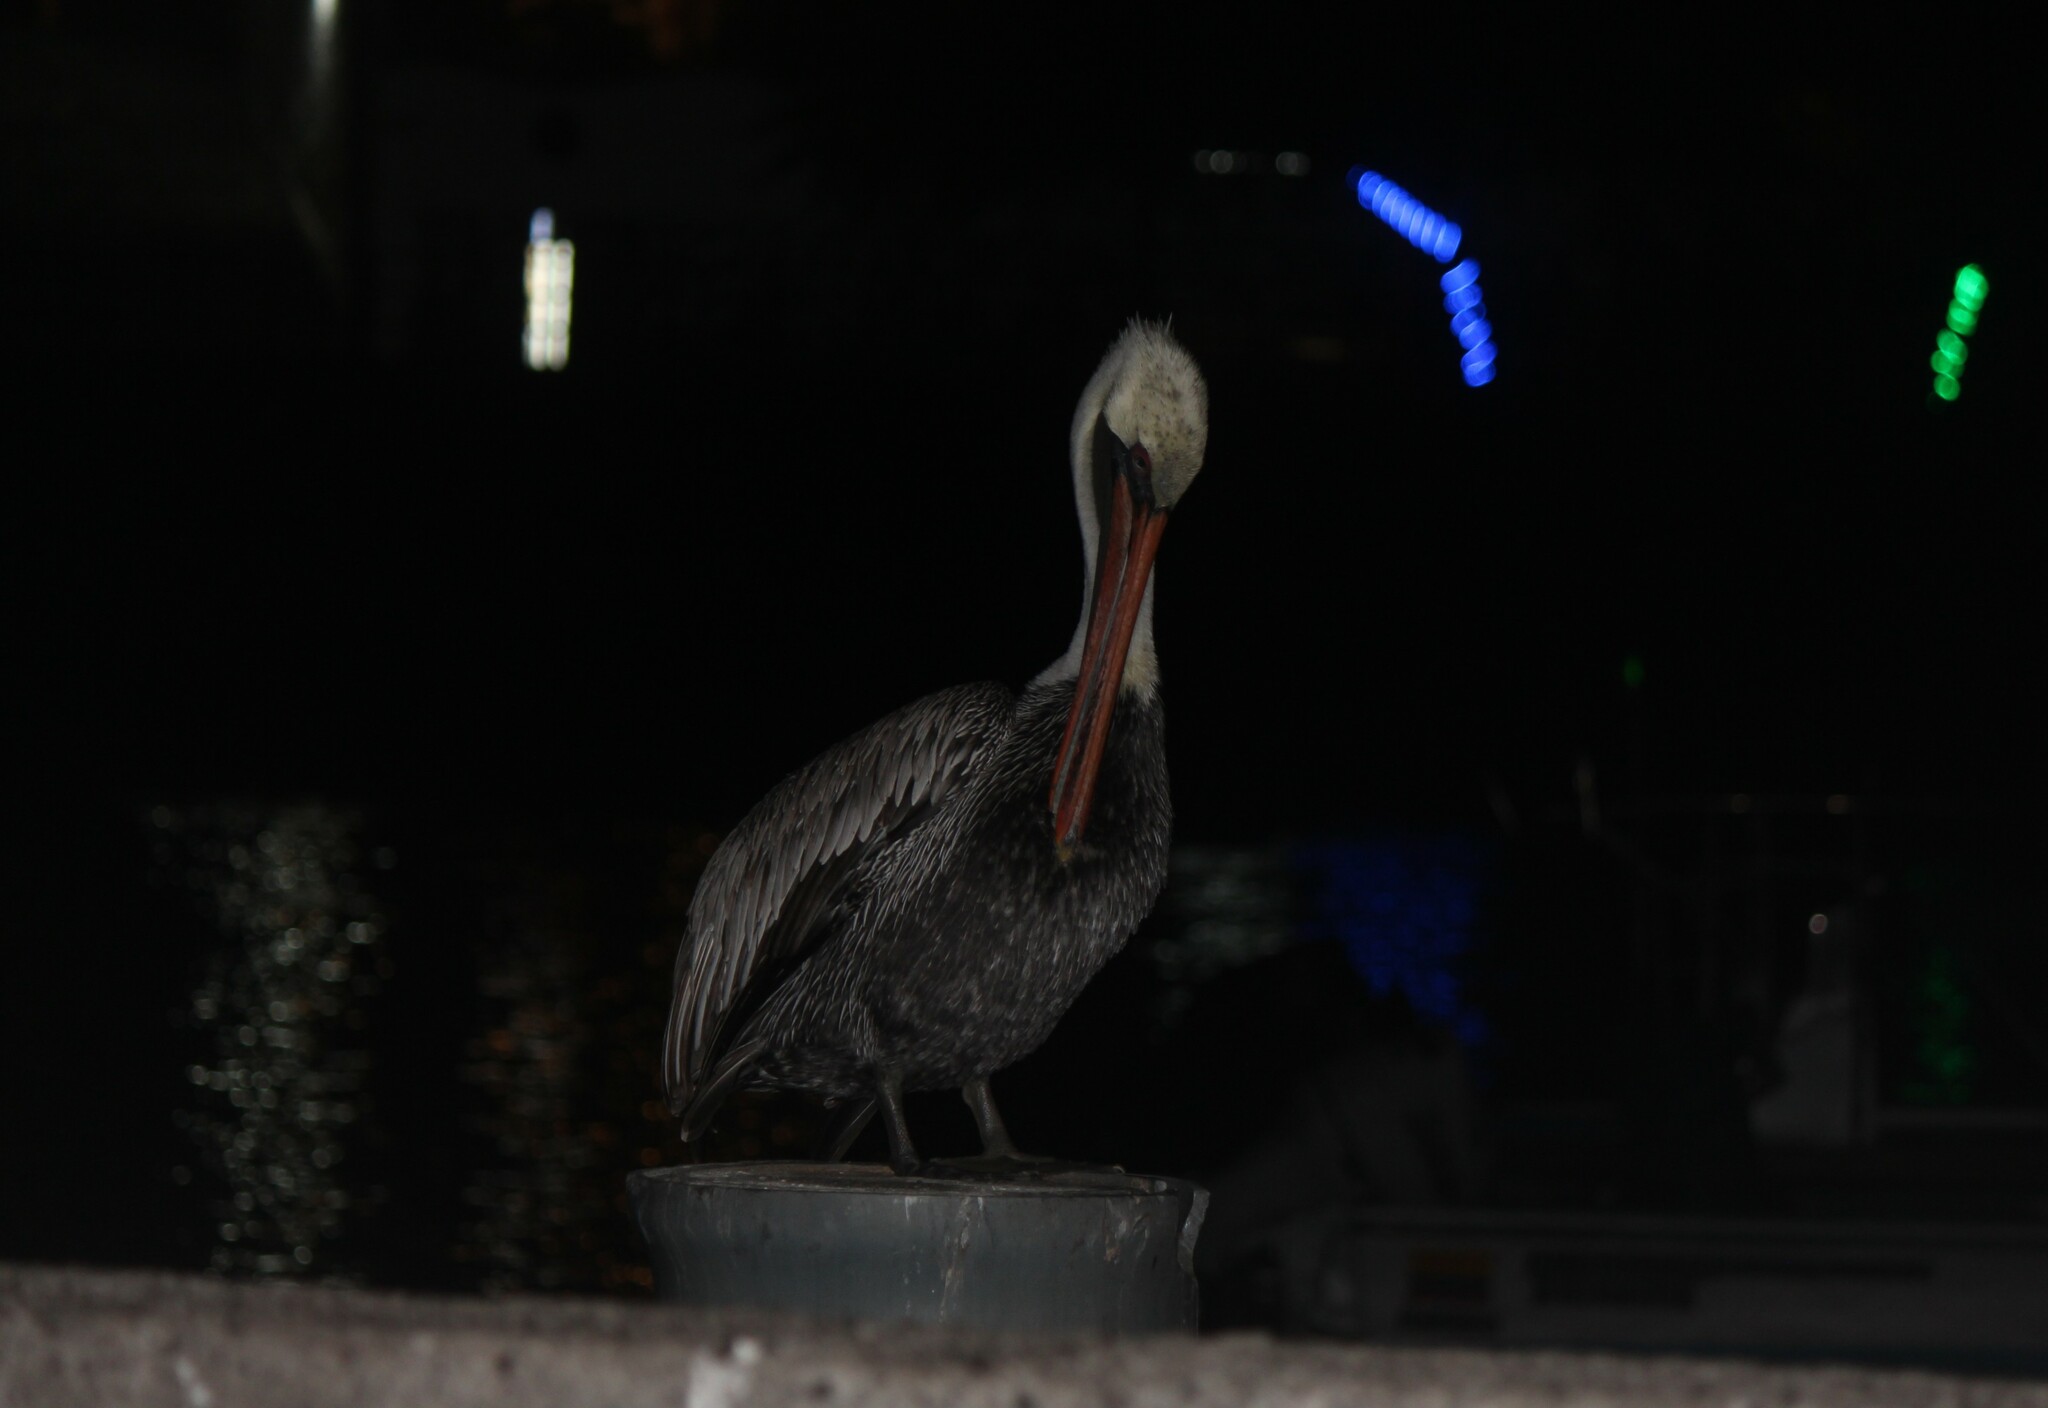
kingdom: Animalia
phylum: Chordata
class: Aves
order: Pelecaniformes
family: Pelecanidae
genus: Pelecanus
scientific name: Pelecanus occidentalis
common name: Brown pelican
